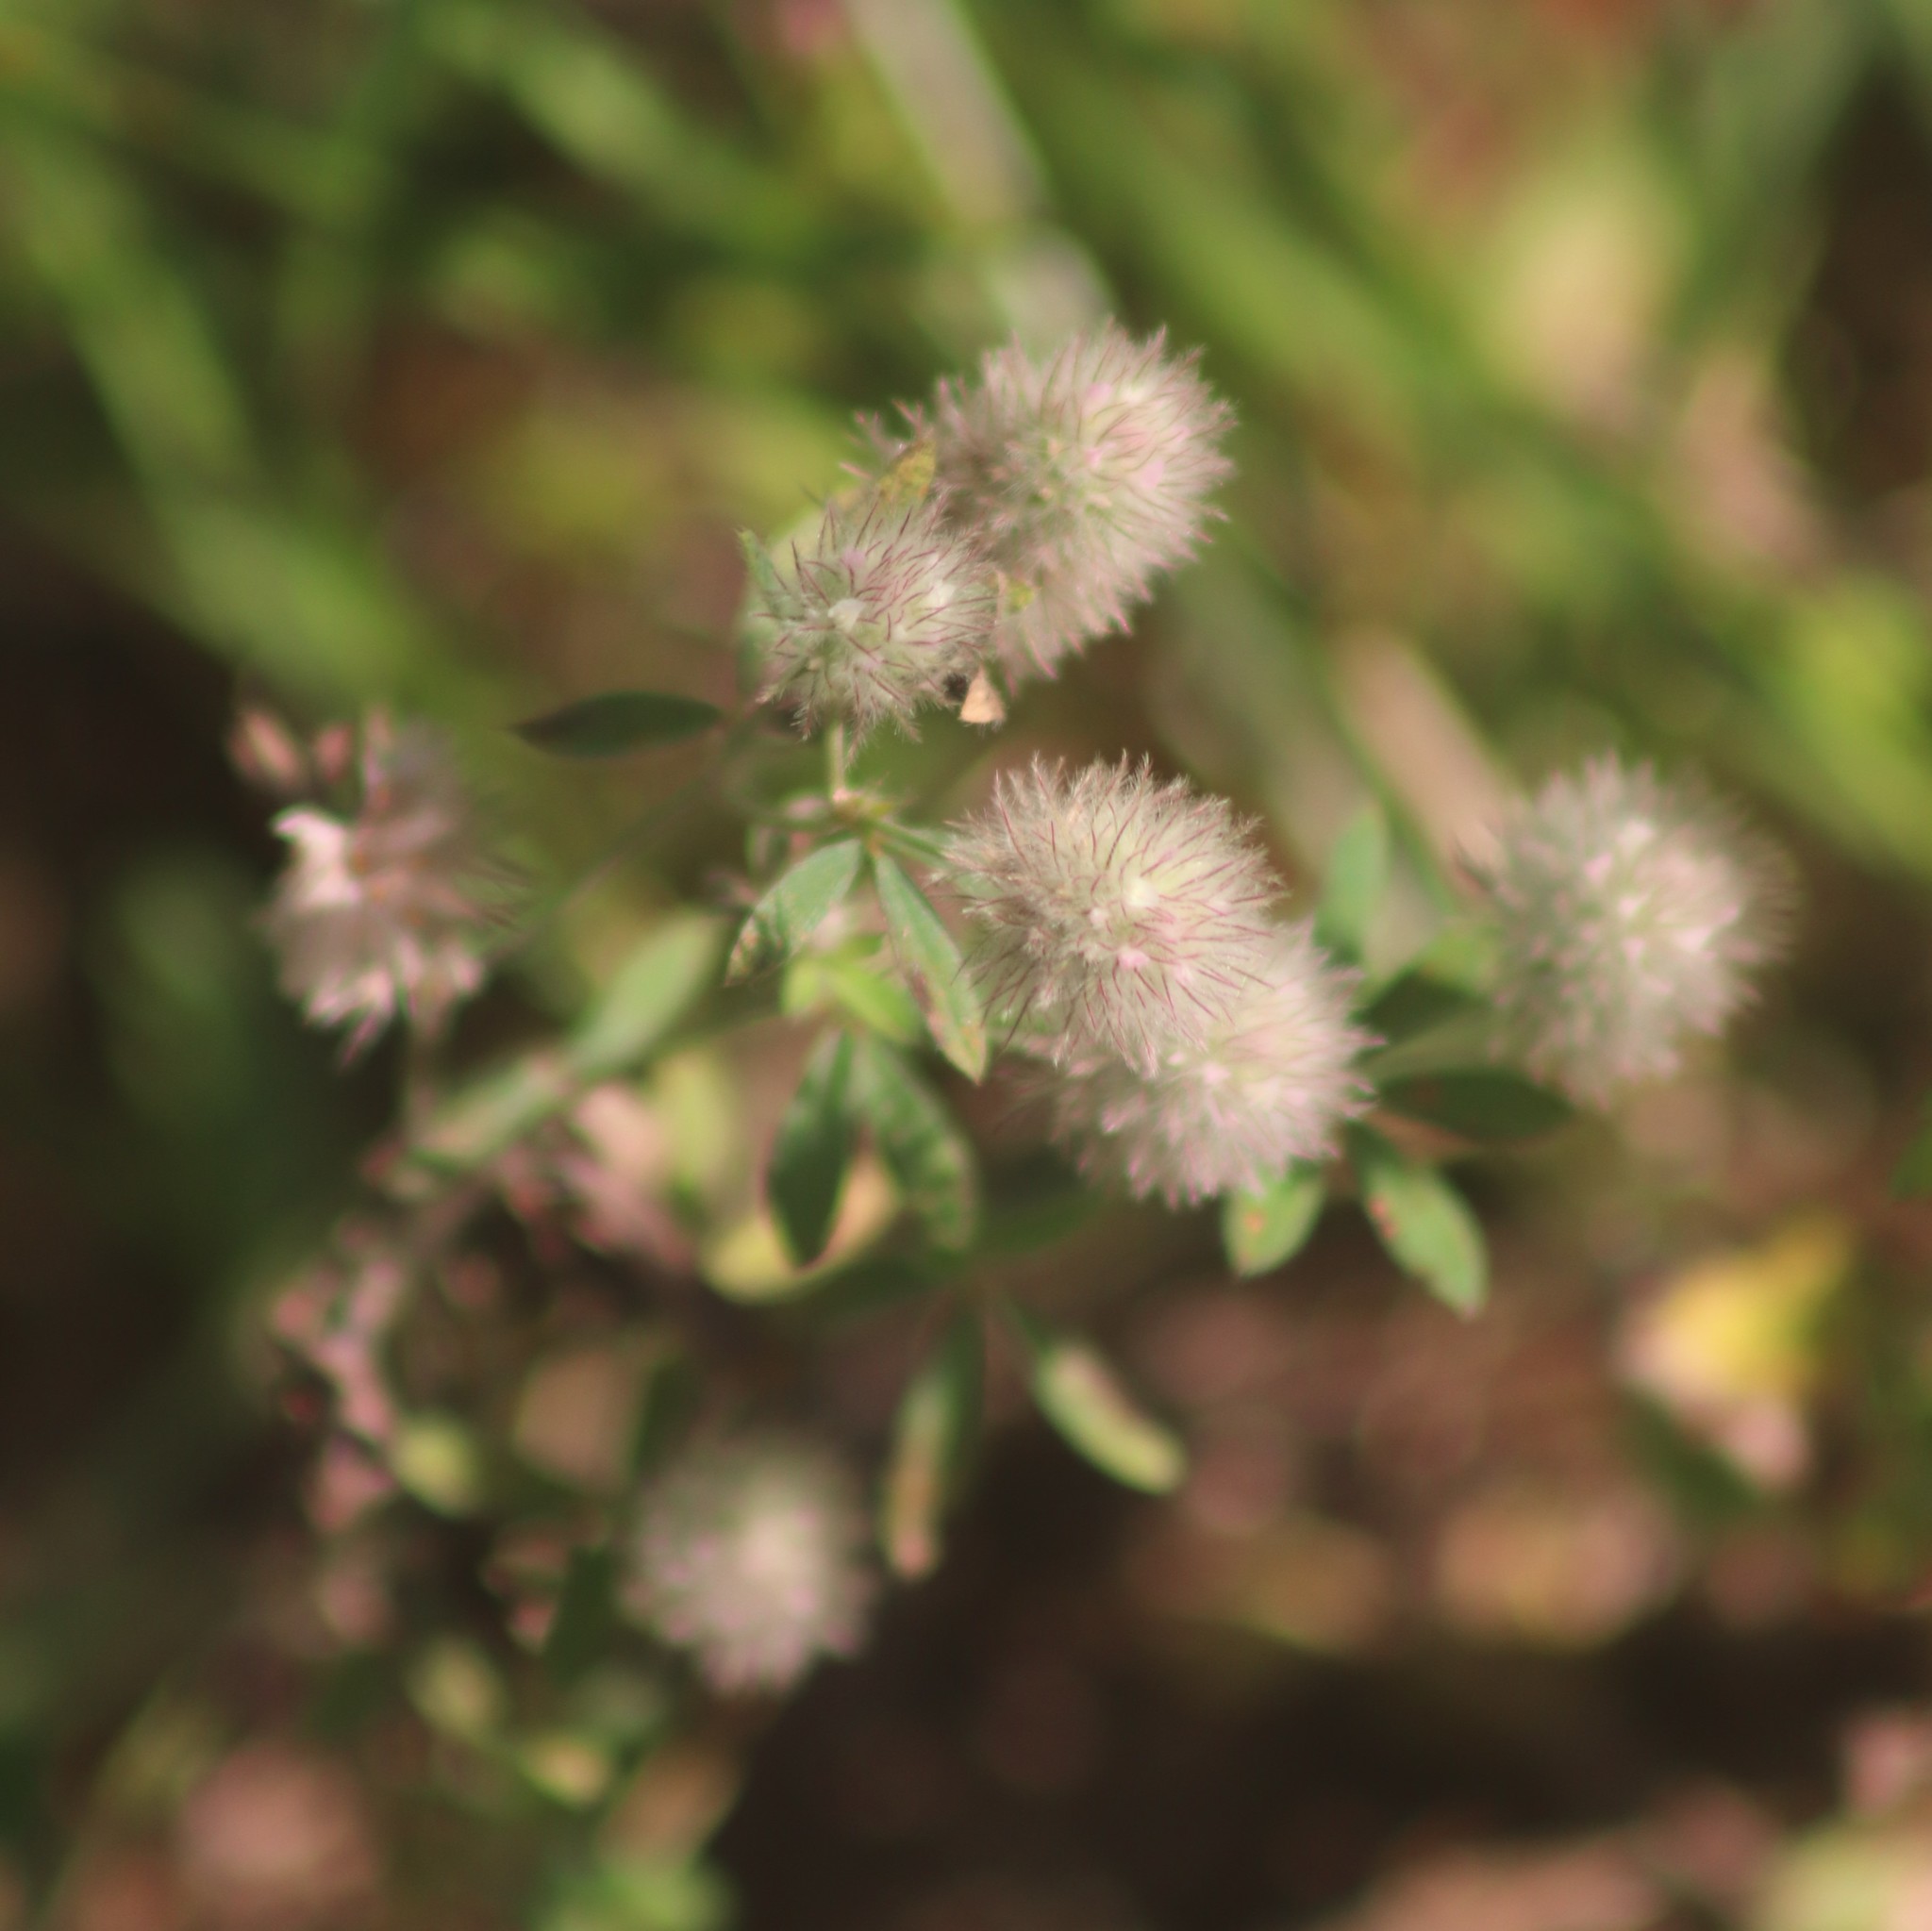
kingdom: Plantae
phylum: Tracheophyta
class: Magnoliopsida
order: Fabales
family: Fabaceae
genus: Trifolium
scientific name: Trifolium arvense
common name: Hare's-foot clover
